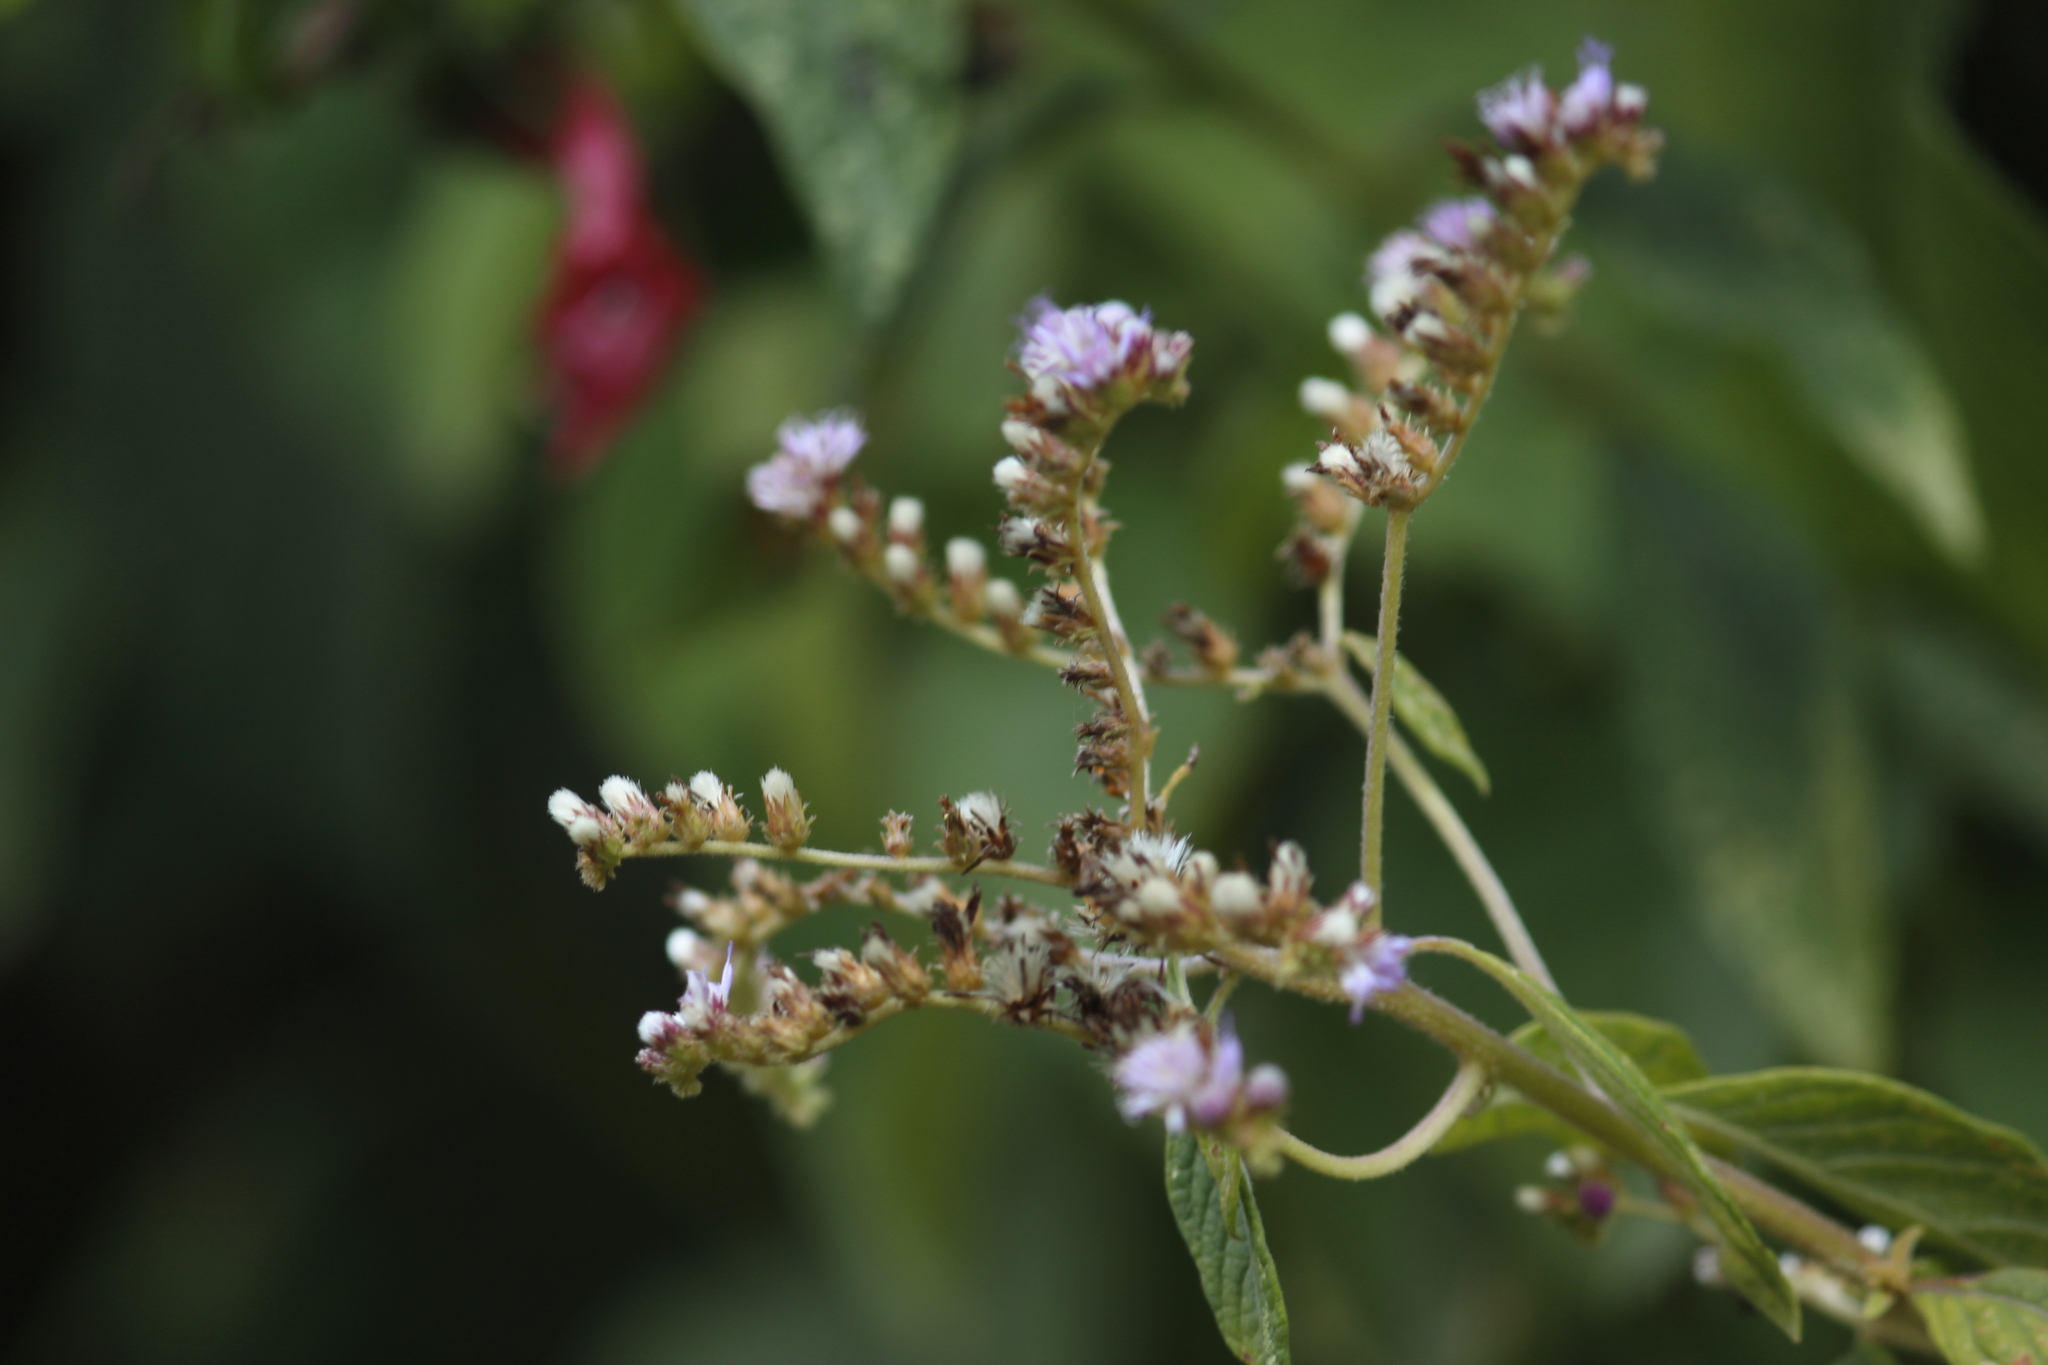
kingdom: Plantae
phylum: Tracheophyta
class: Magnoliopsida
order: Asterales
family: Asteraceae
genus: Cyrtocymura
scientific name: Cyrtocymura scorpioides
